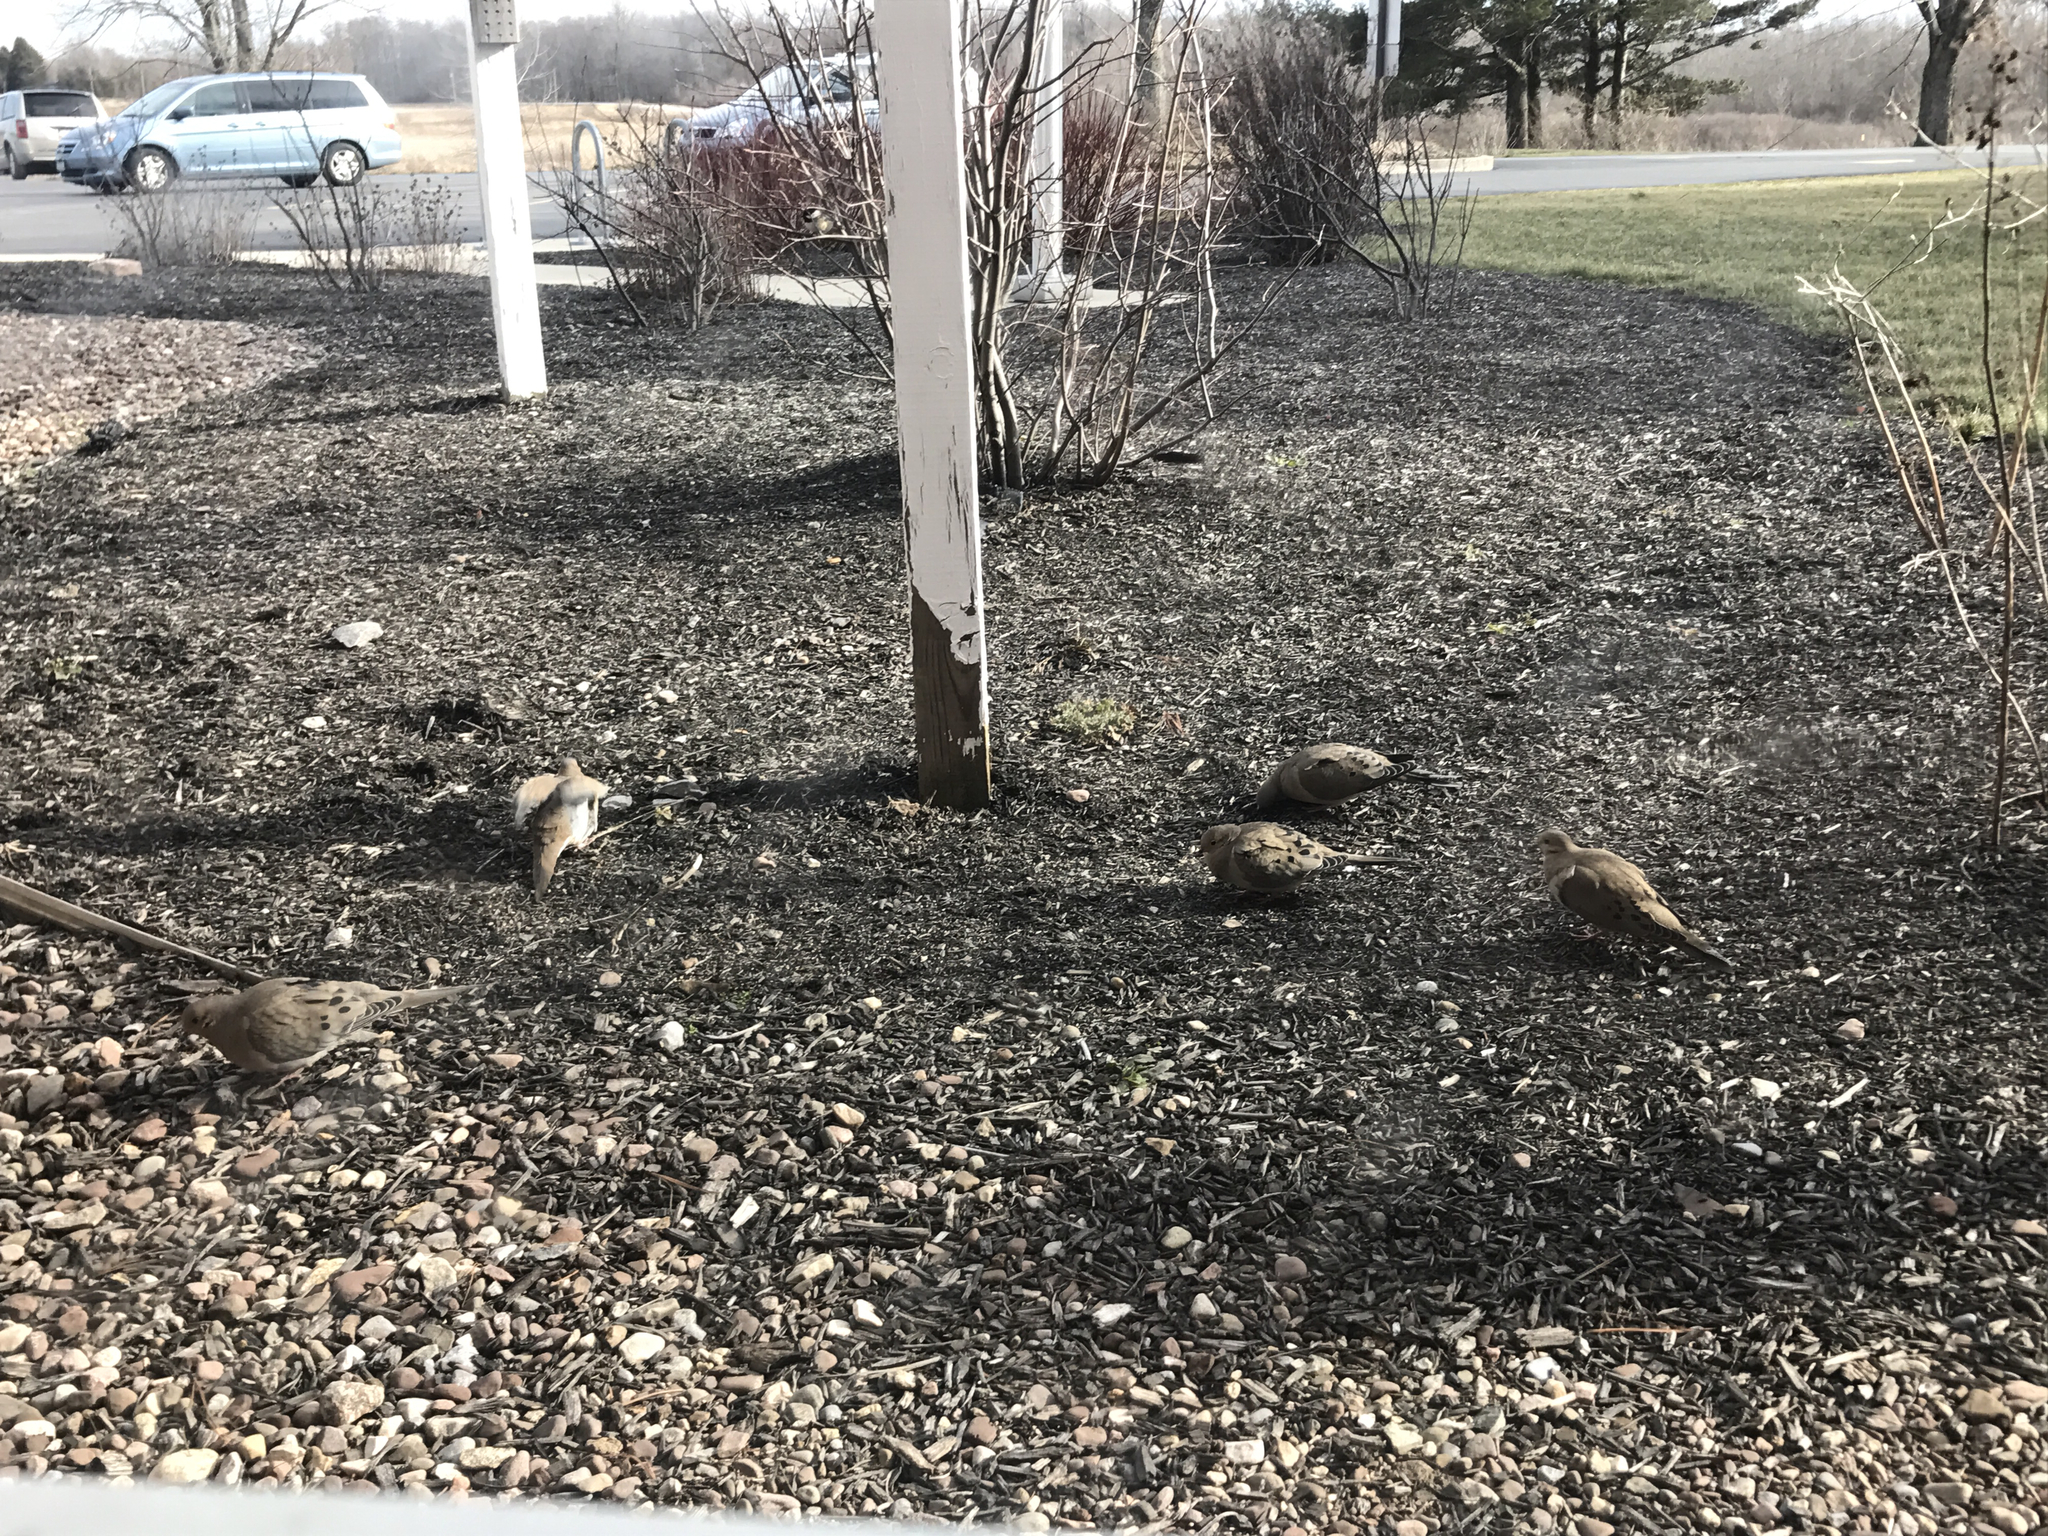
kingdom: Animalia
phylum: Chordata
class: Aves
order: Columbiformes
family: Columbidae
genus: Zenaida
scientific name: Zenaida macroura
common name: Mourning dove
